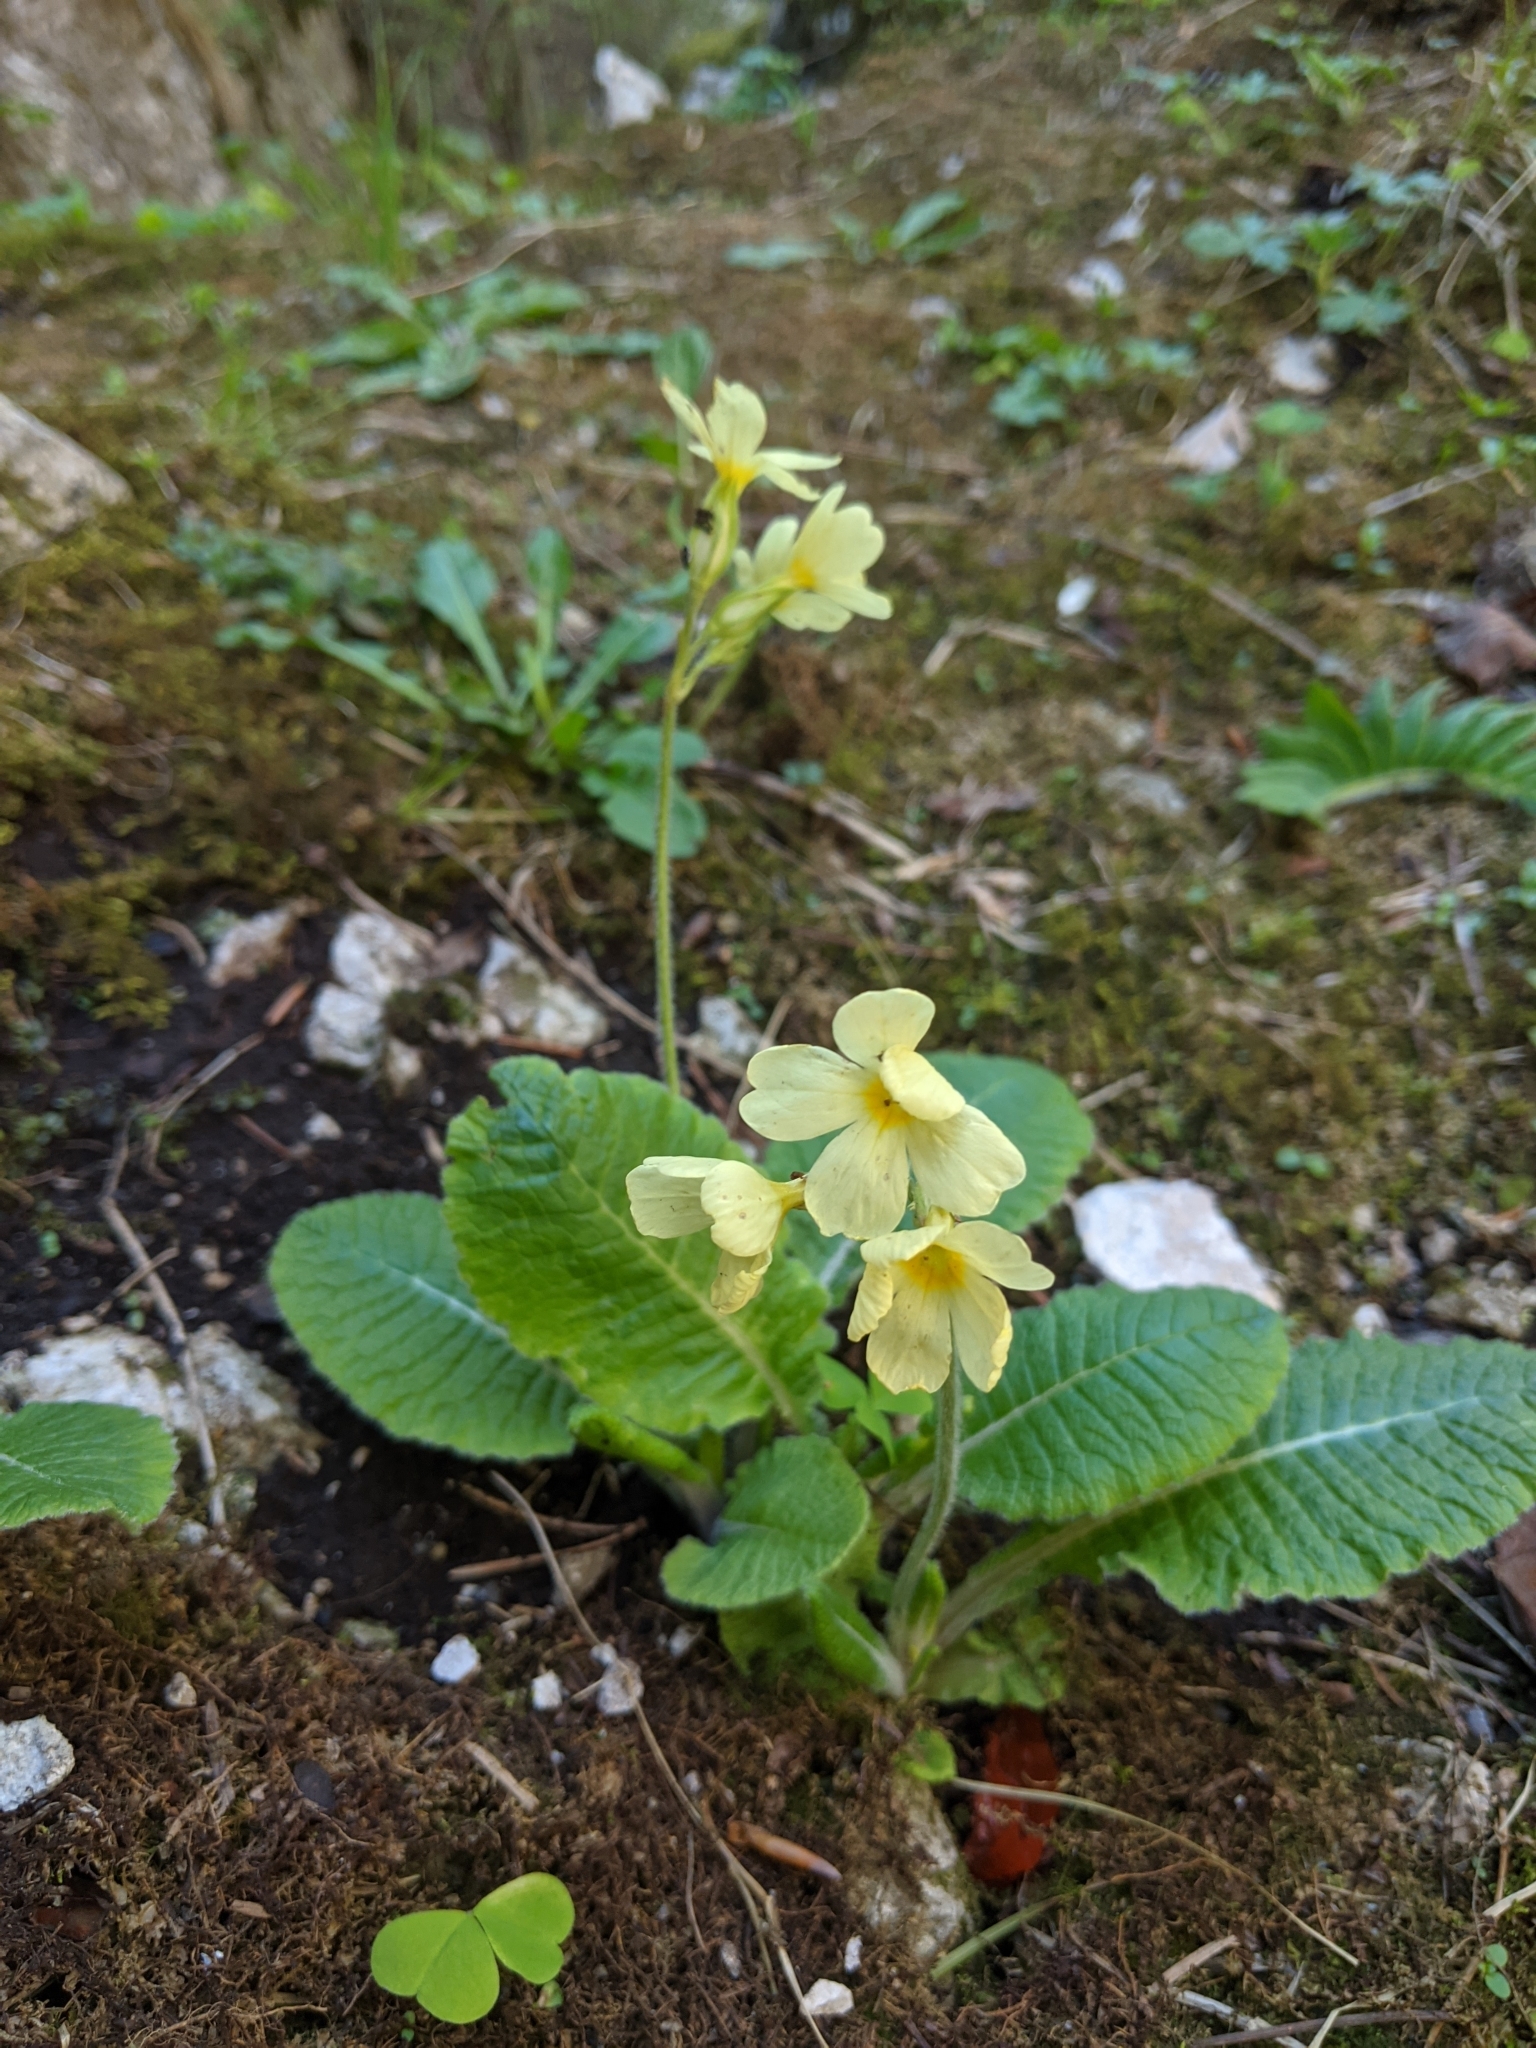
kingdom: Plantae
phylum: Tracheophyta
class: Magnoliopsida
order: Ericales
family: Primulaceae
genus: Primula
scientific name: Primula elatior
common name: Oxlip
